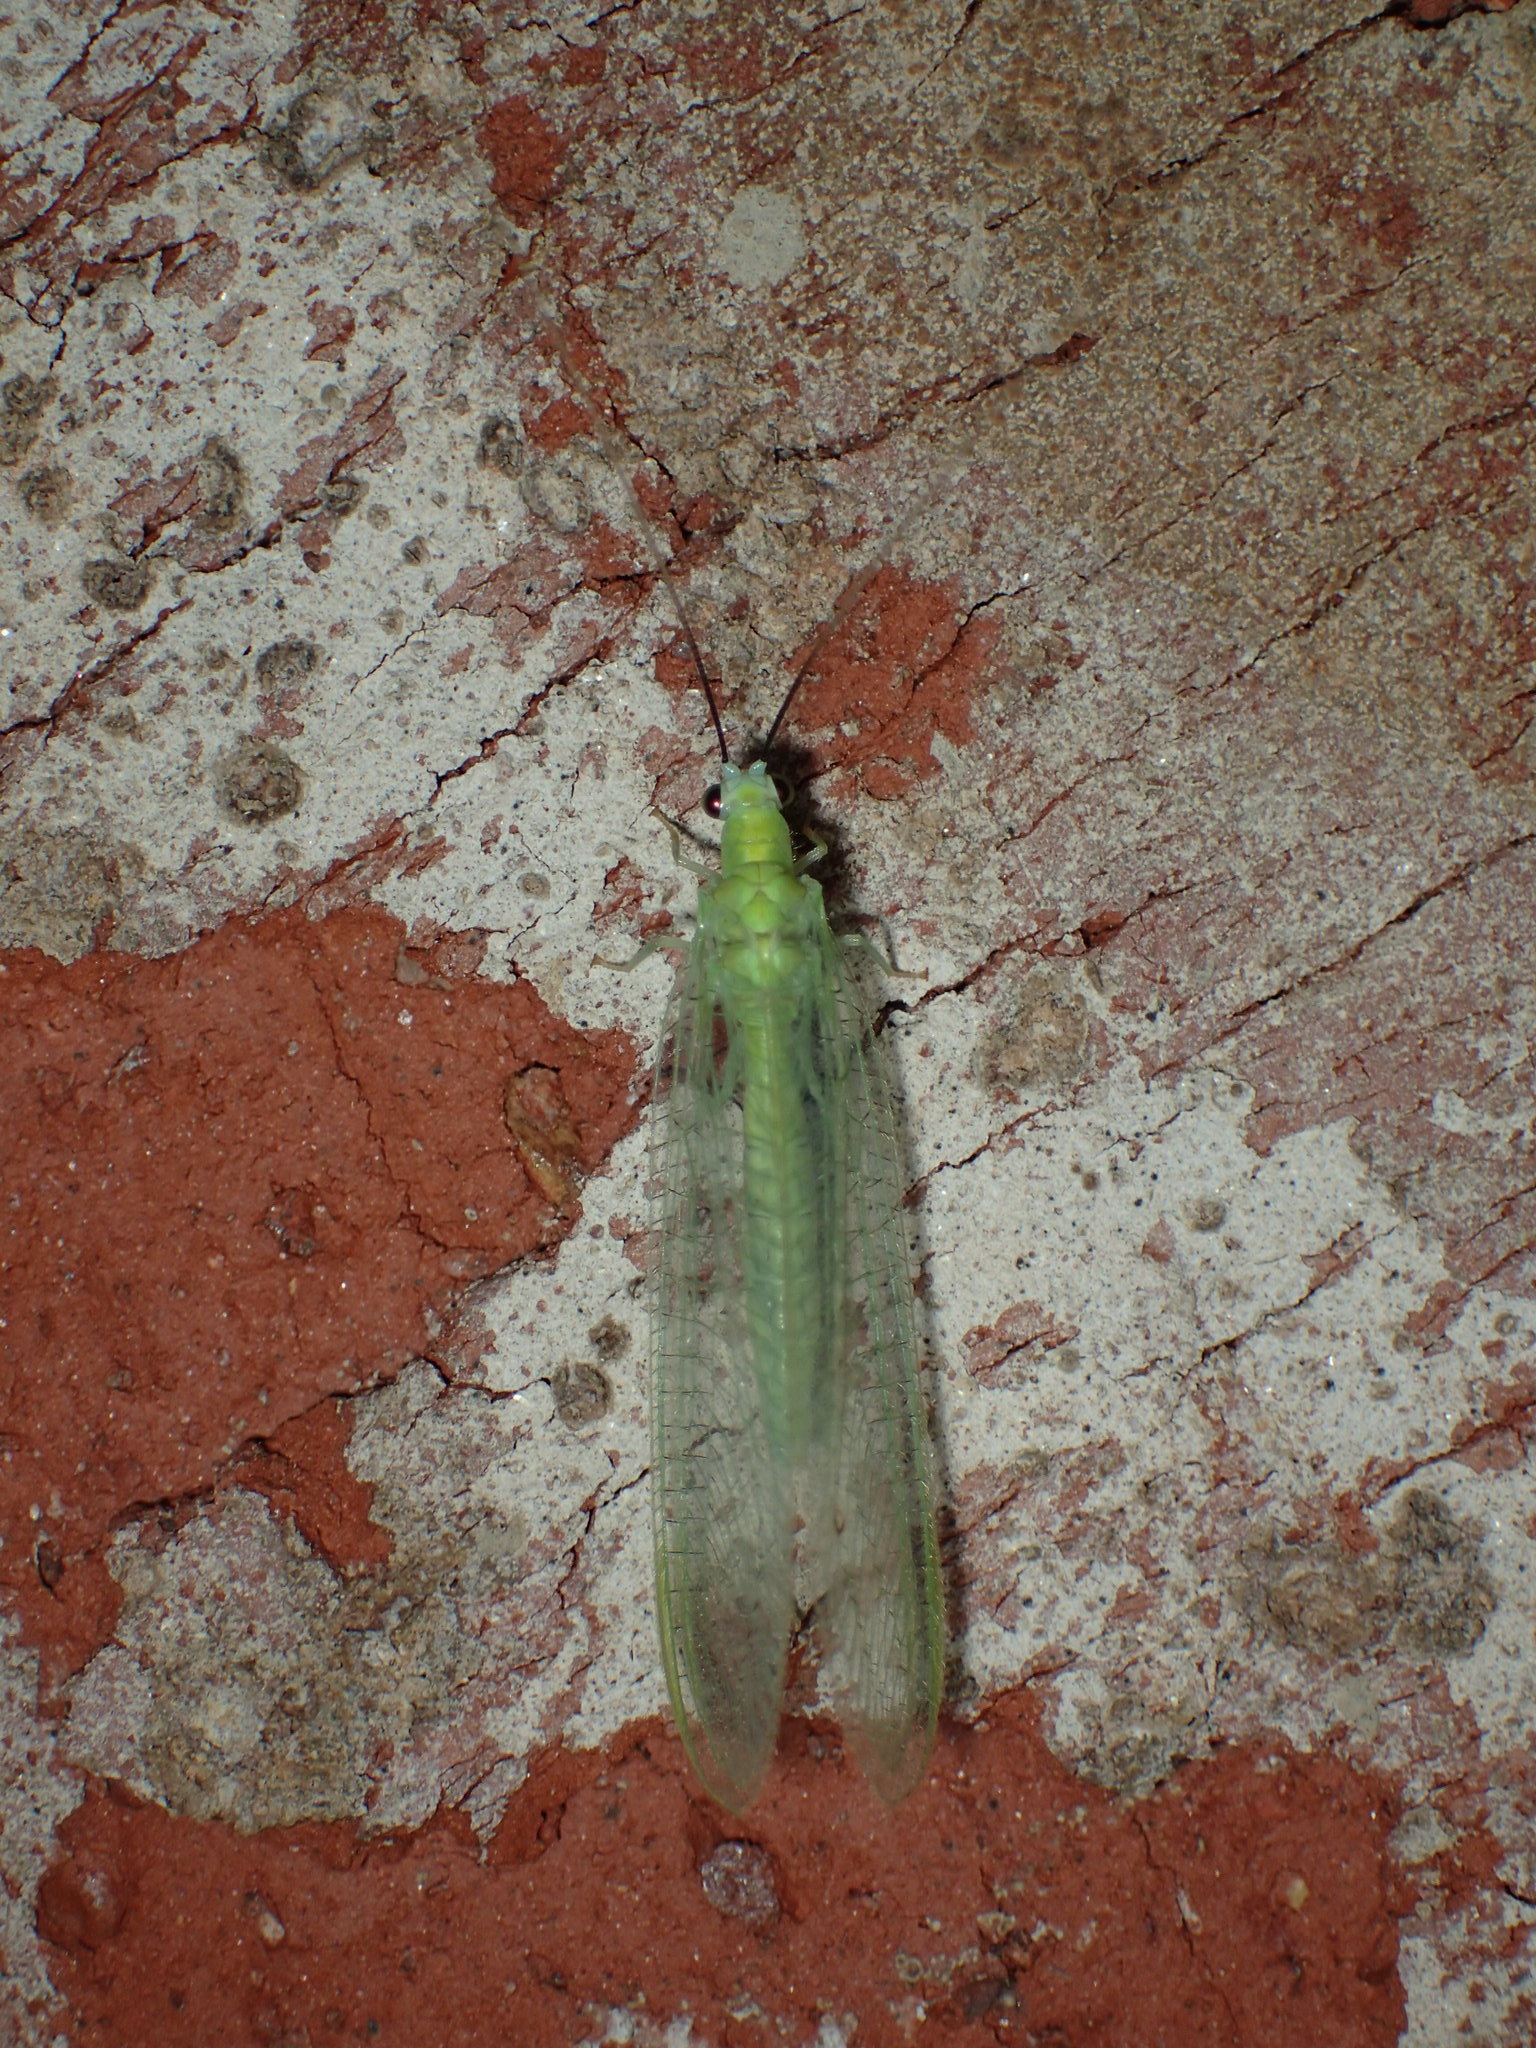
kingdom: Animalia
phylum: Arthropoda
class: Insecta
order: Neuroptera
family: Chrysopidae
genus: Chrysopa
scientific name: Chrysopa nigricornis
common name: Black-horned green lacewing
